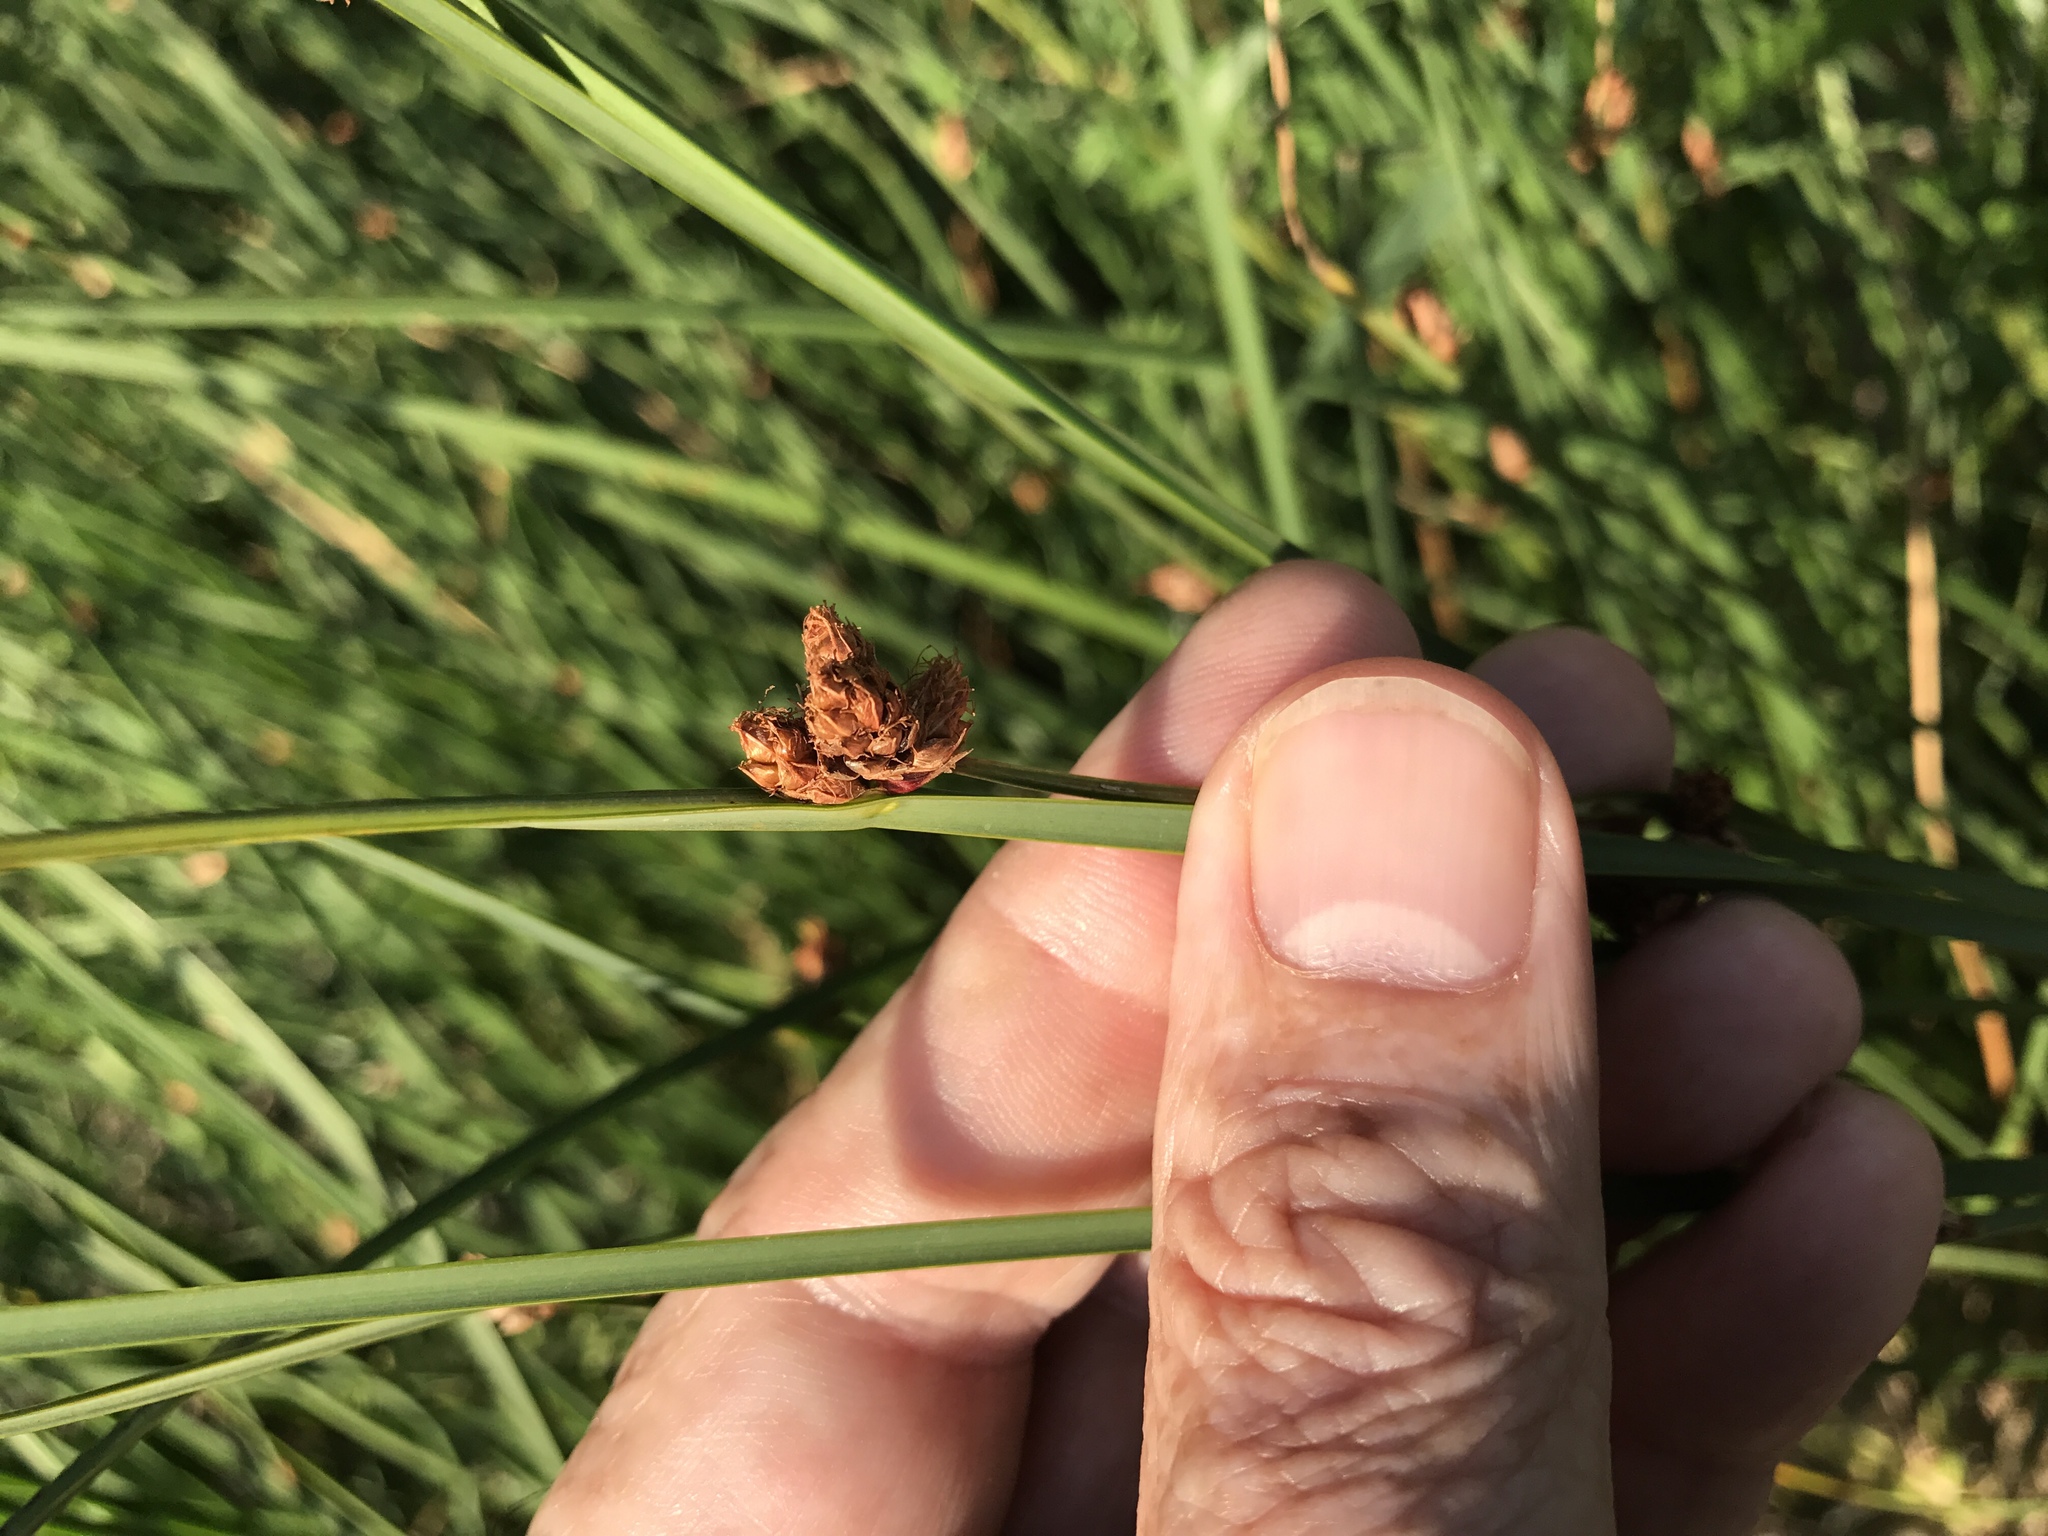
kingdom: Plantae
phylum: Tracheophyta
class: Liliopsida
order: Poales
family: Cyperaceae
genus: Schoenoplectus
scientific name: Schoenoplectus pungens
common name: Sharp club-rush
